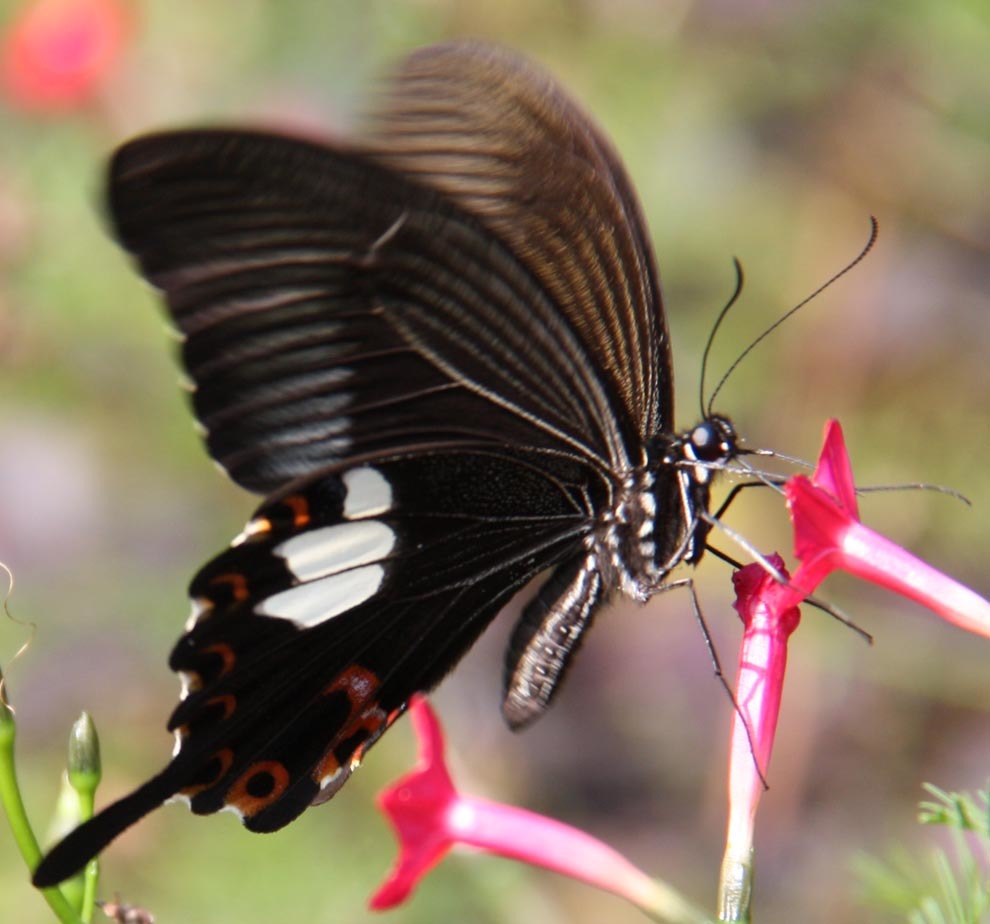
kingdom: Animalia
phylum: Arthropoda
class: Insecta
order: Lepidoptera
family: Papilionidae
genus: Papilio
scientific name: Papilio helenus
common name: Red helen
